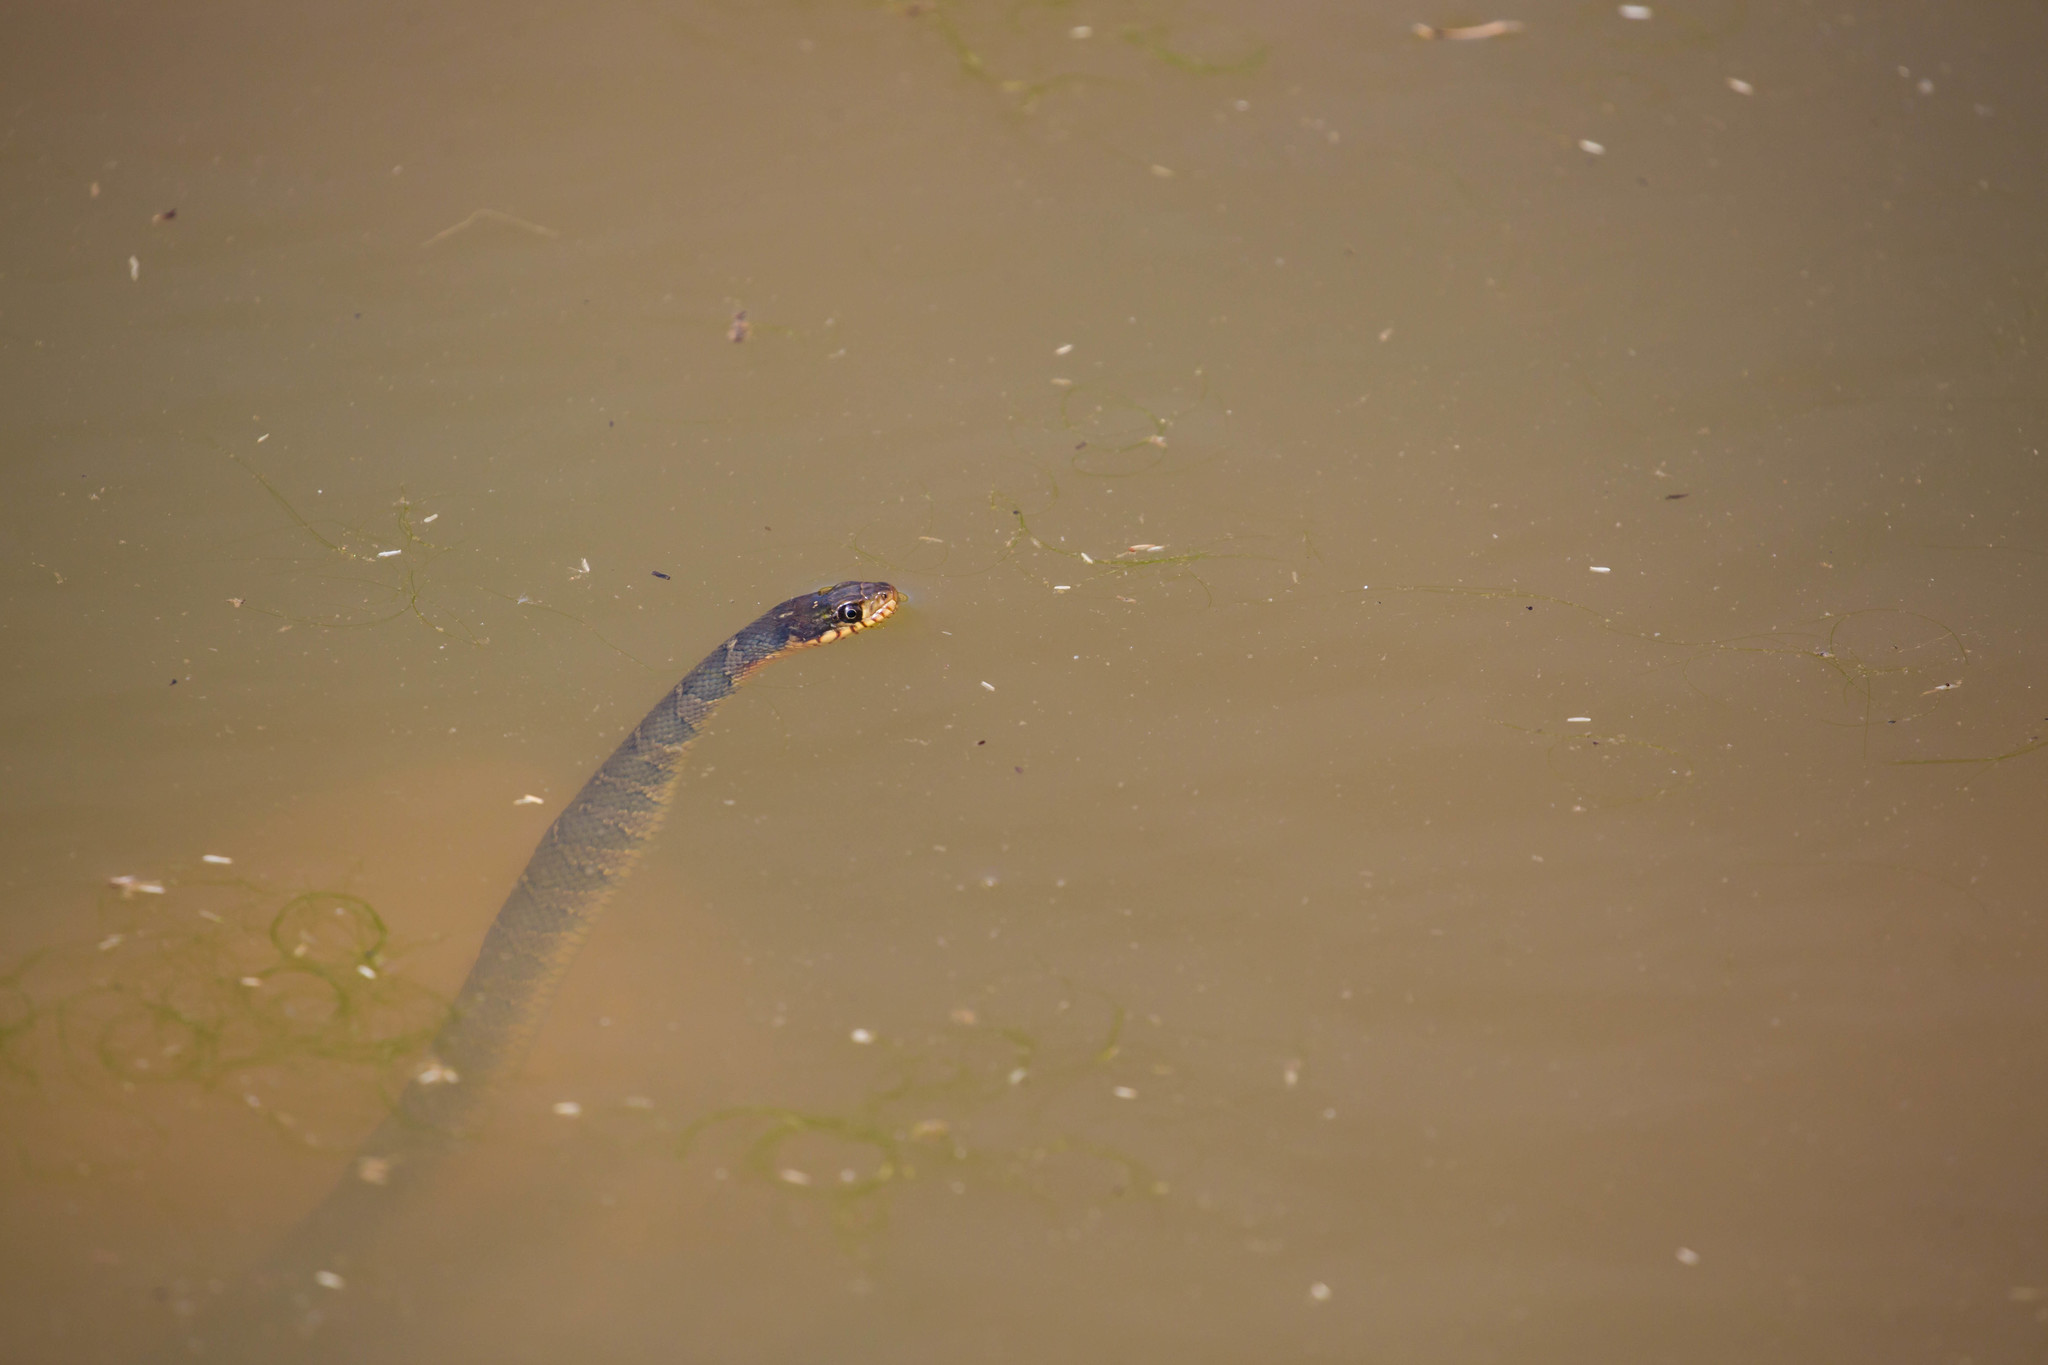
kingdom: Animalia
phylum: Chordata
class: Squamata
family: Colubridae
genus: Nerodia
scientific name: Nerodia erythrogaster
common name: Plainbelly water snake
